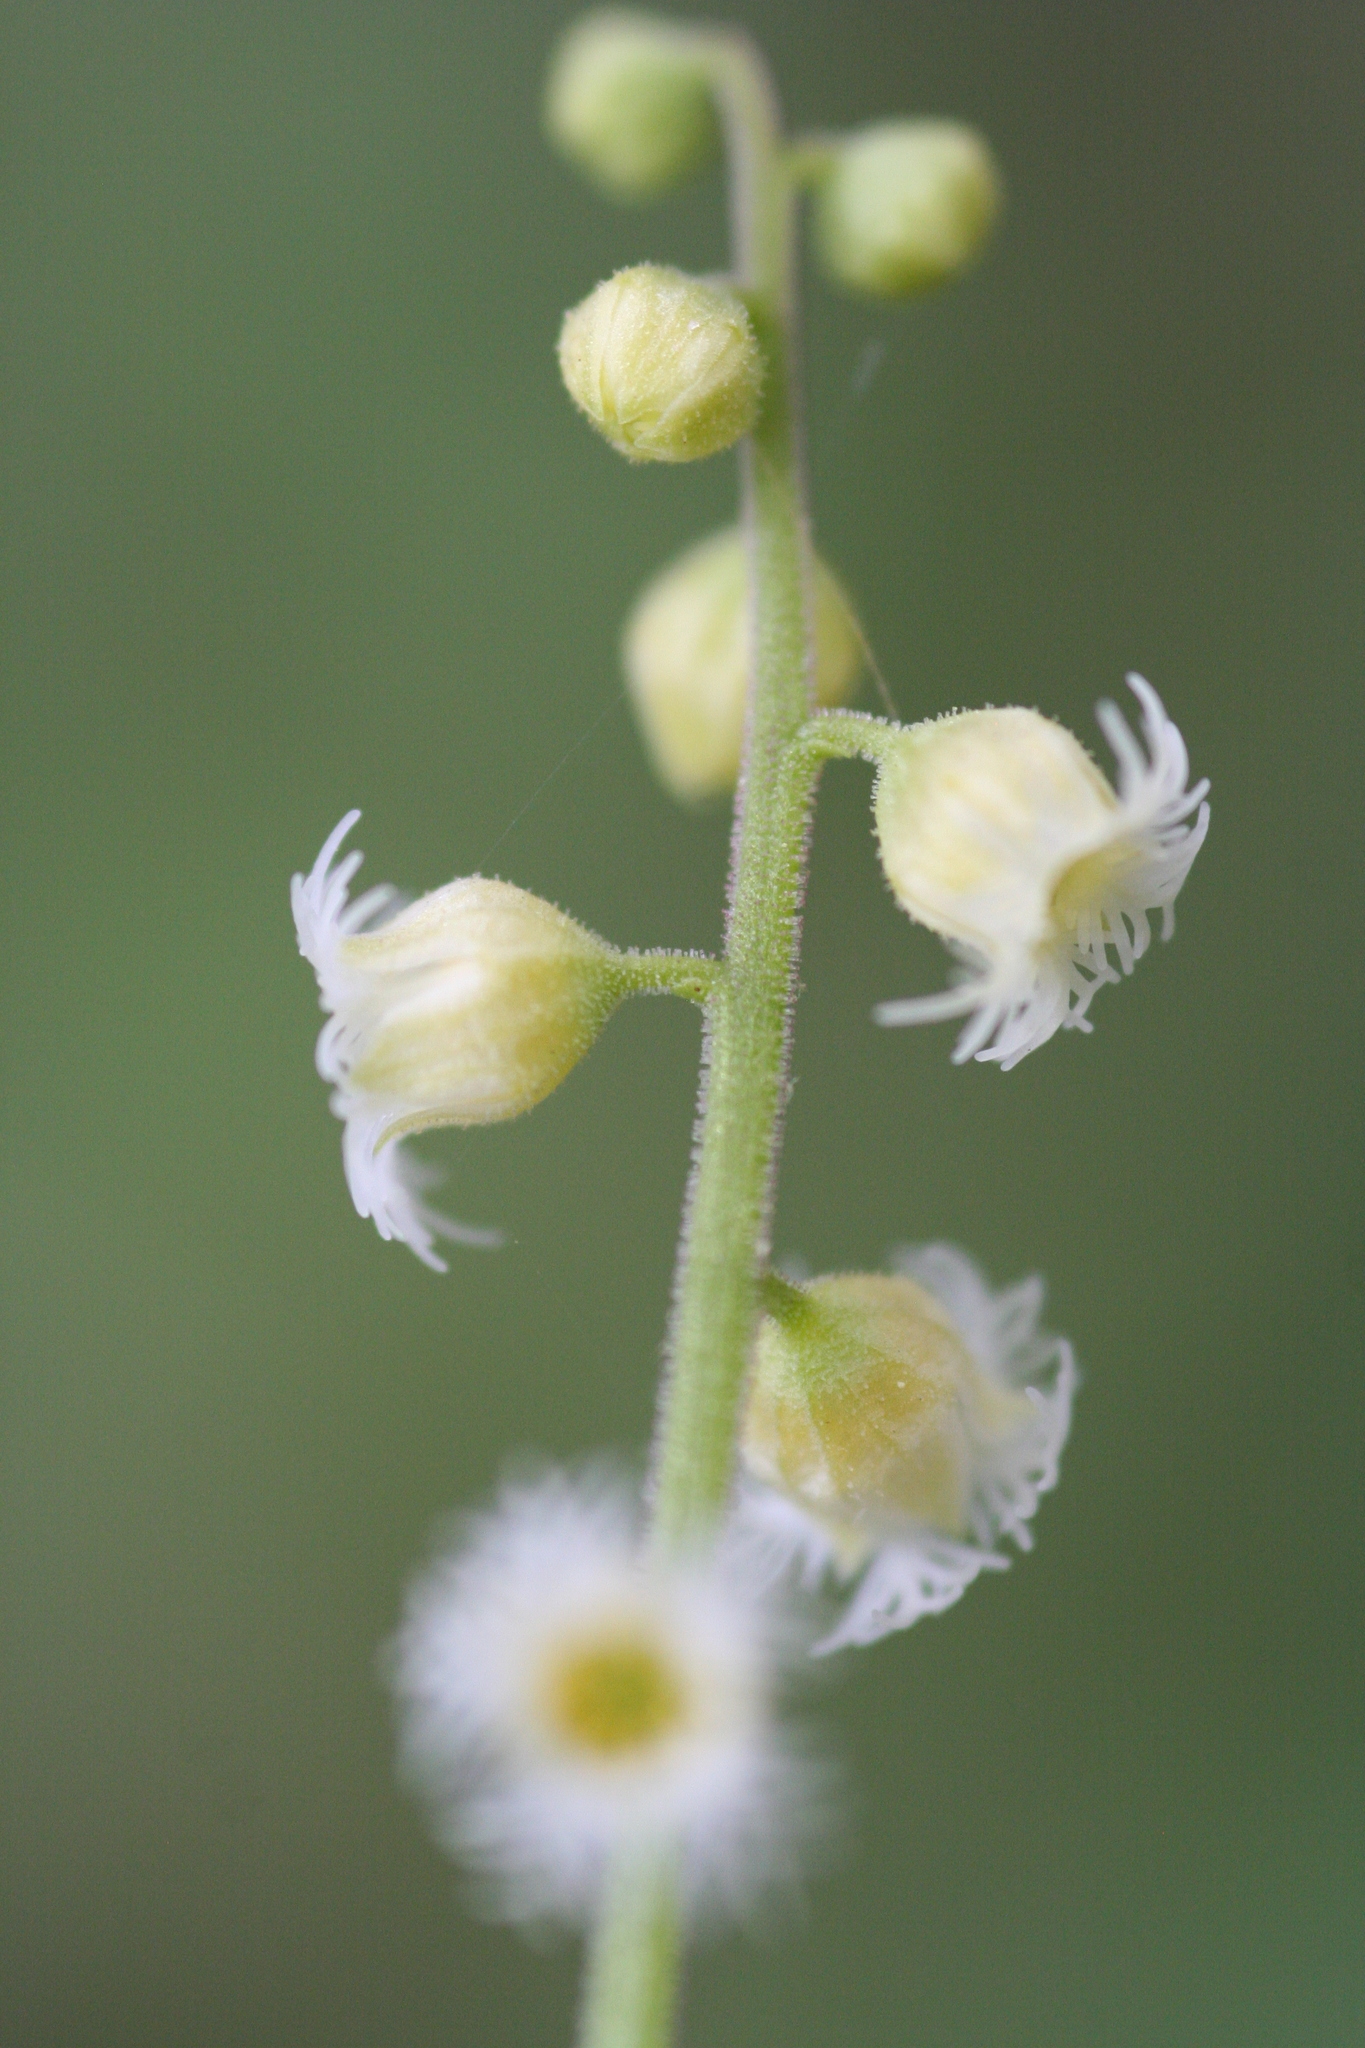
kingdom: Plantae
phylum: Tracheophyta
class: Magnoliopsida
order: Saxifragales
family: Saxifragaceae
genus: Mitella
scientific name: Mitella diphylla
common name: Coolwort
